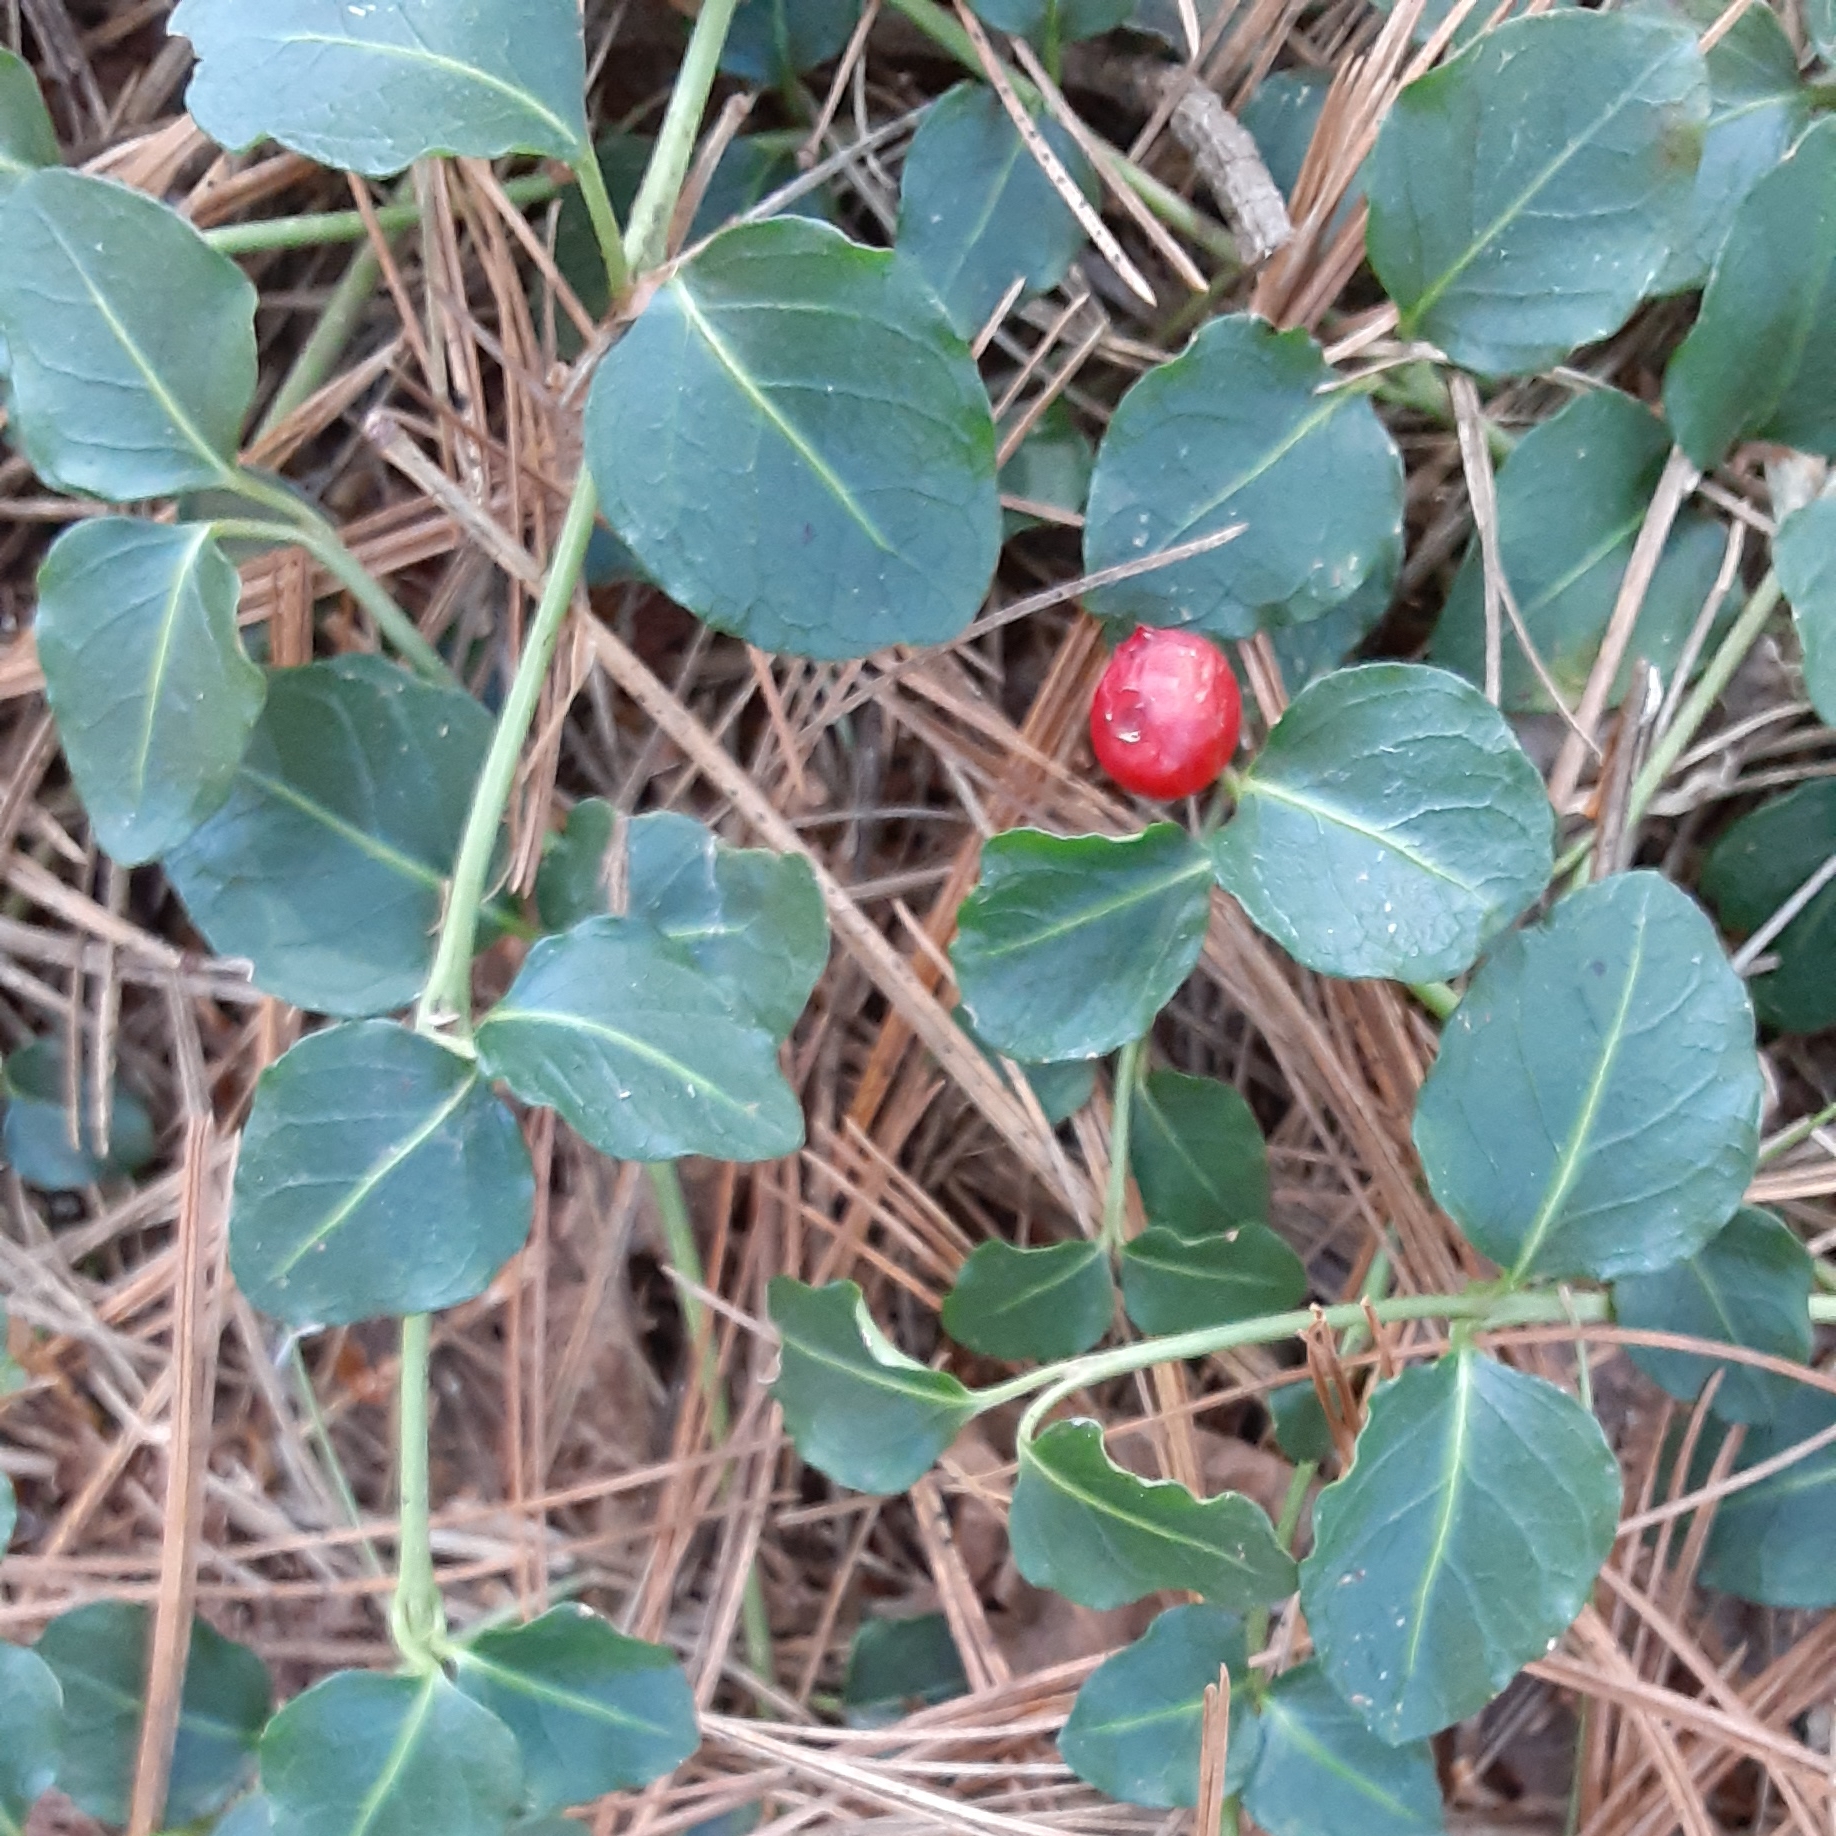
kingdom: Plantae
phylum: Tracheophyta
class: Magnoliopsida
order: Gentianales
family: Rubiaceae
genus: Mitchella
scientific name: Mitchella repens
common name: Partridge-berry
